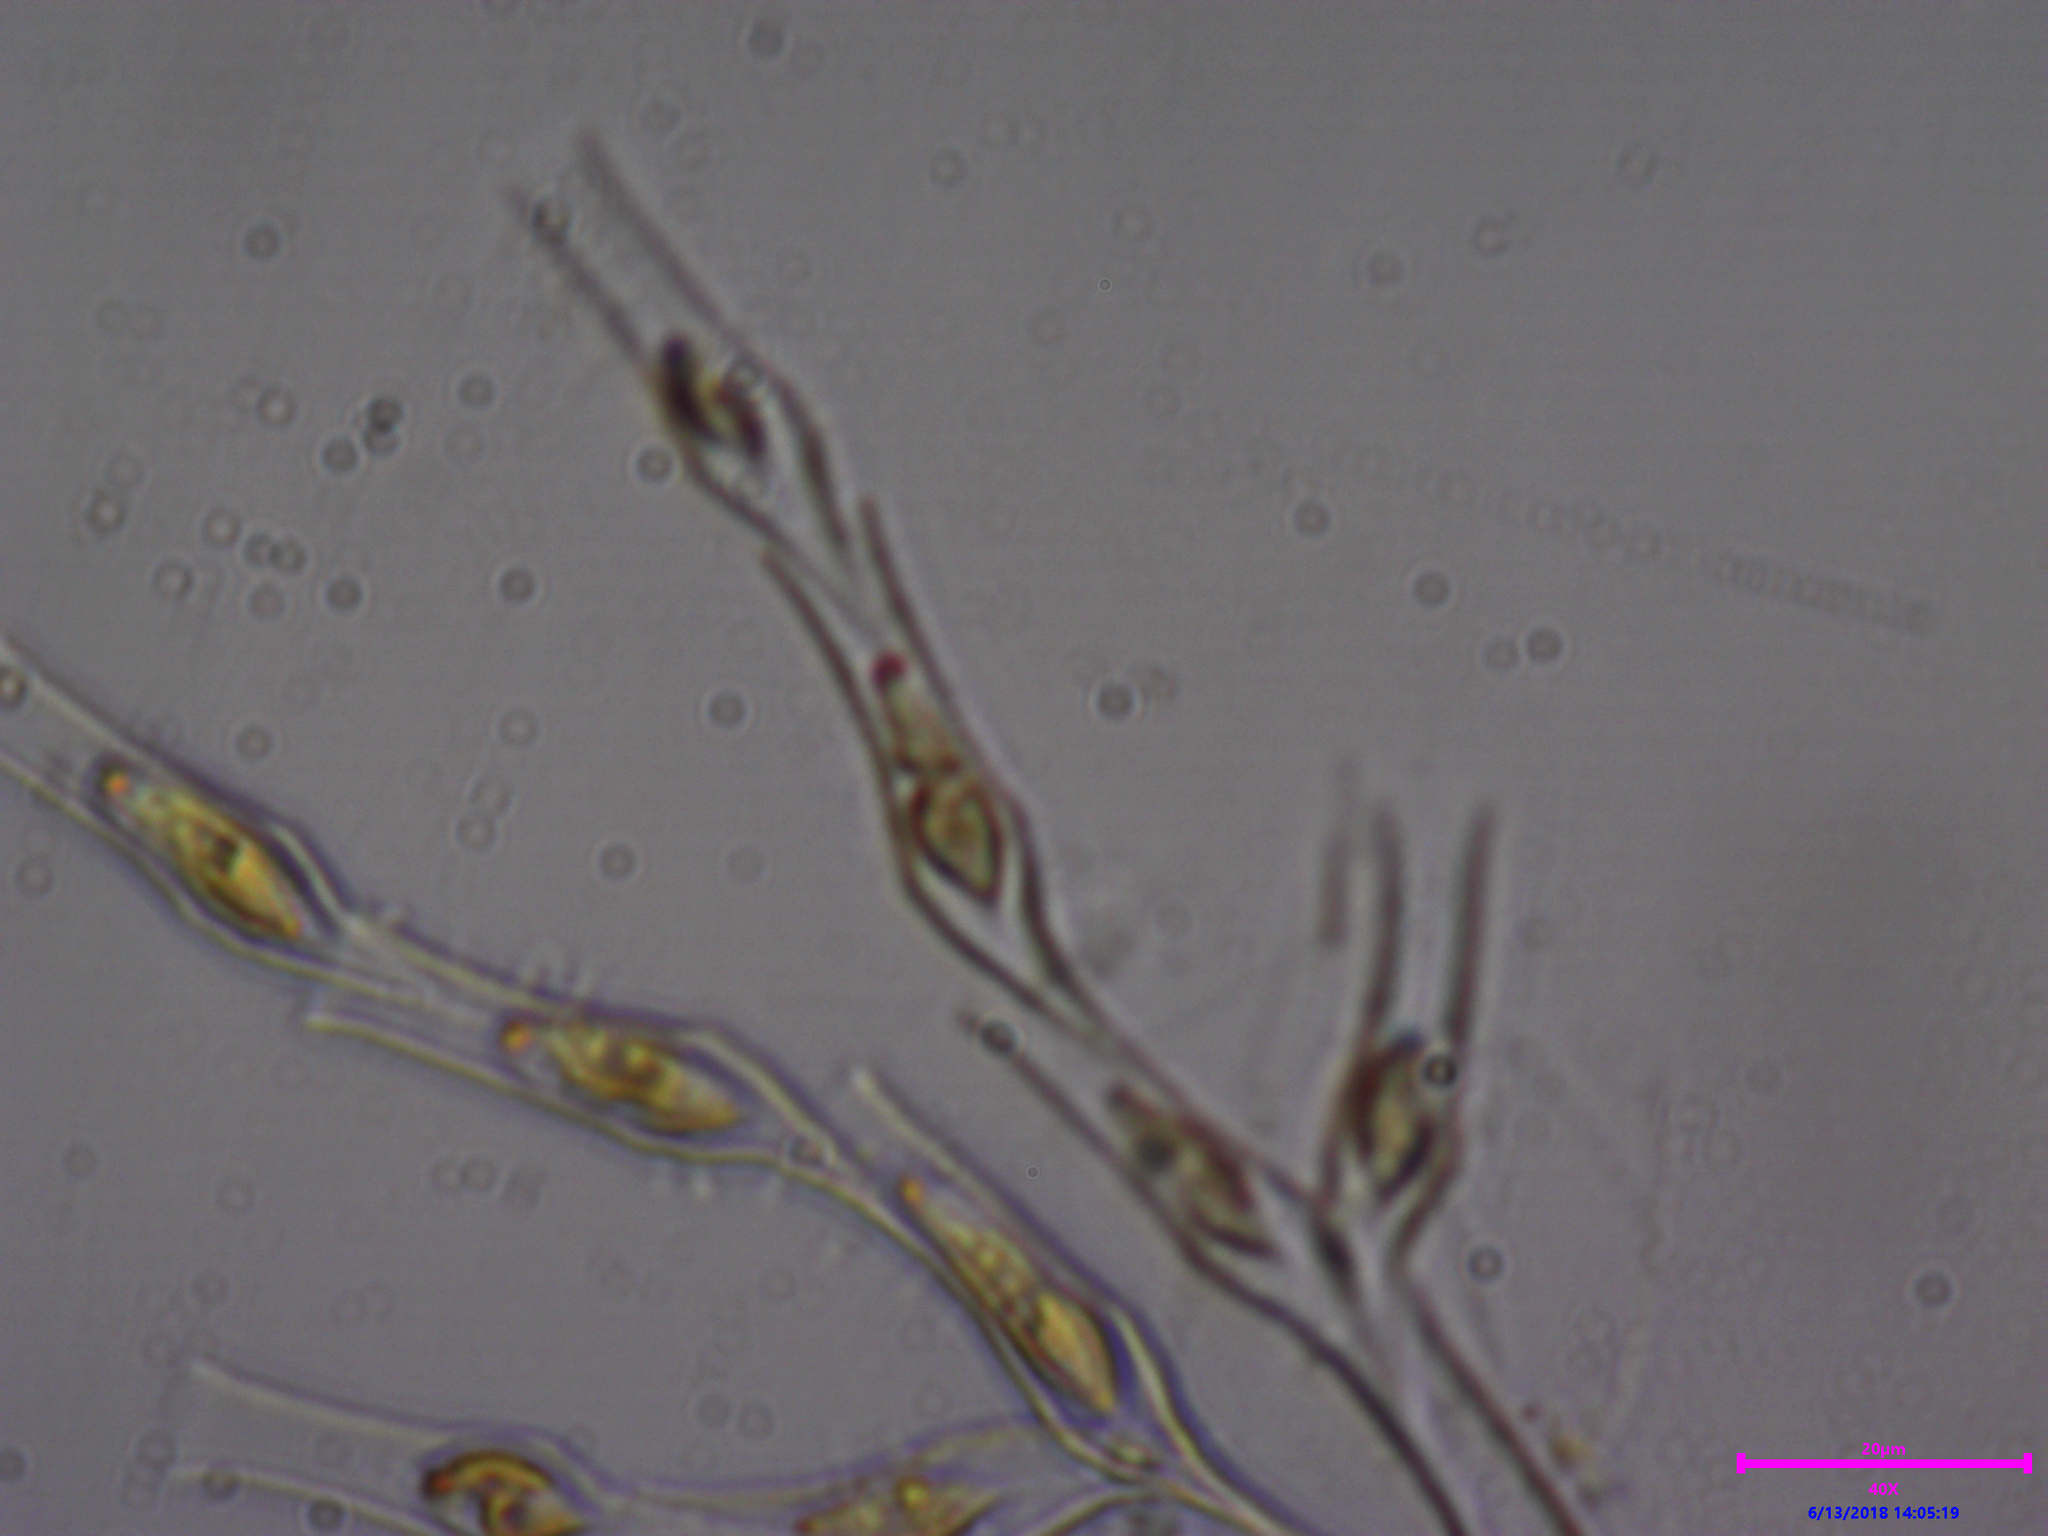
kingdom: Chromista
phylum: Ochrophyta
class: Chrysophyceae
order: Chromulinales
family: Dinobryaceae
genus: Dinobryon
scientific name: Dinobryon
